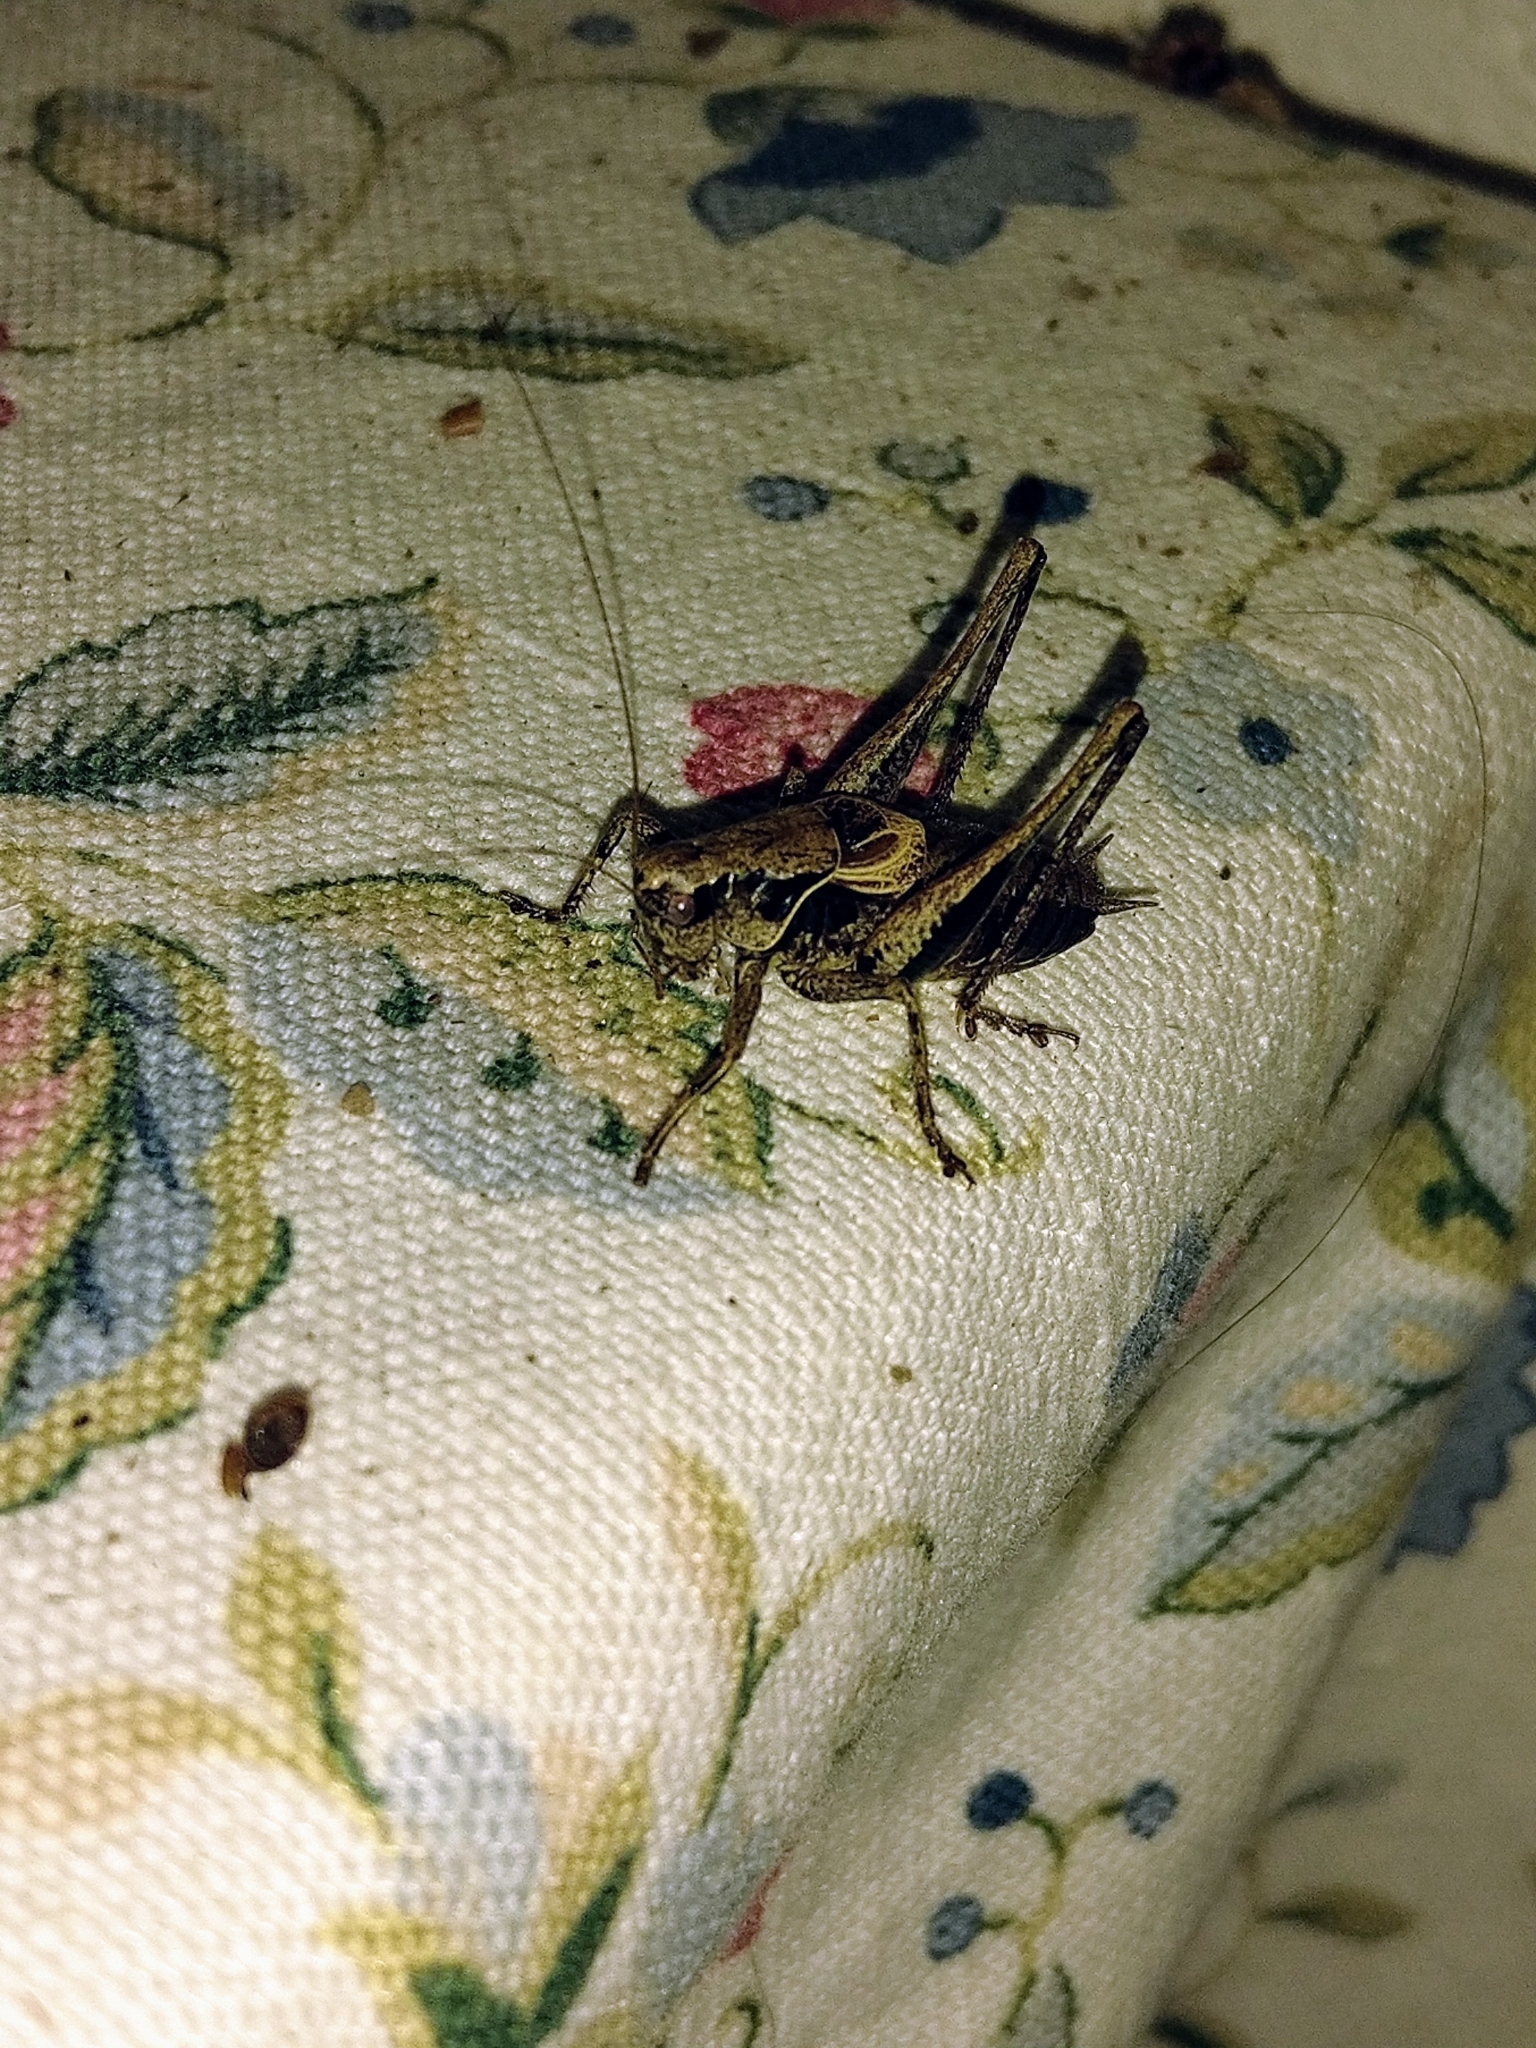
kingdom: Animalia
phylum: Arthropoda
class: Insecta
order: Orthoptera
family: Tettigoniidae
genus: Pholidoptera
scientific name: Pholidoptera griseoaptera
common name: Dark bush-cricket
